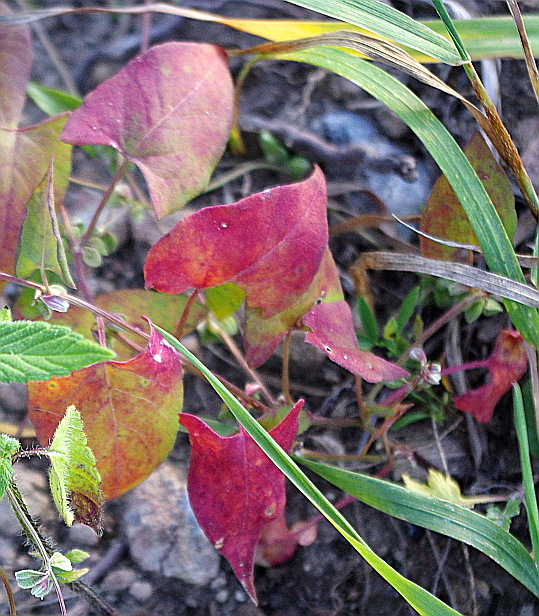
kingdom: Plantae
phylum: Tracheophyta
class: Magnoliopsida
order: Caryophyllales
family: Polygonaceae
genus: Fallopia
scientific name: Fallopia convolvulus
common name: Black bindweed
